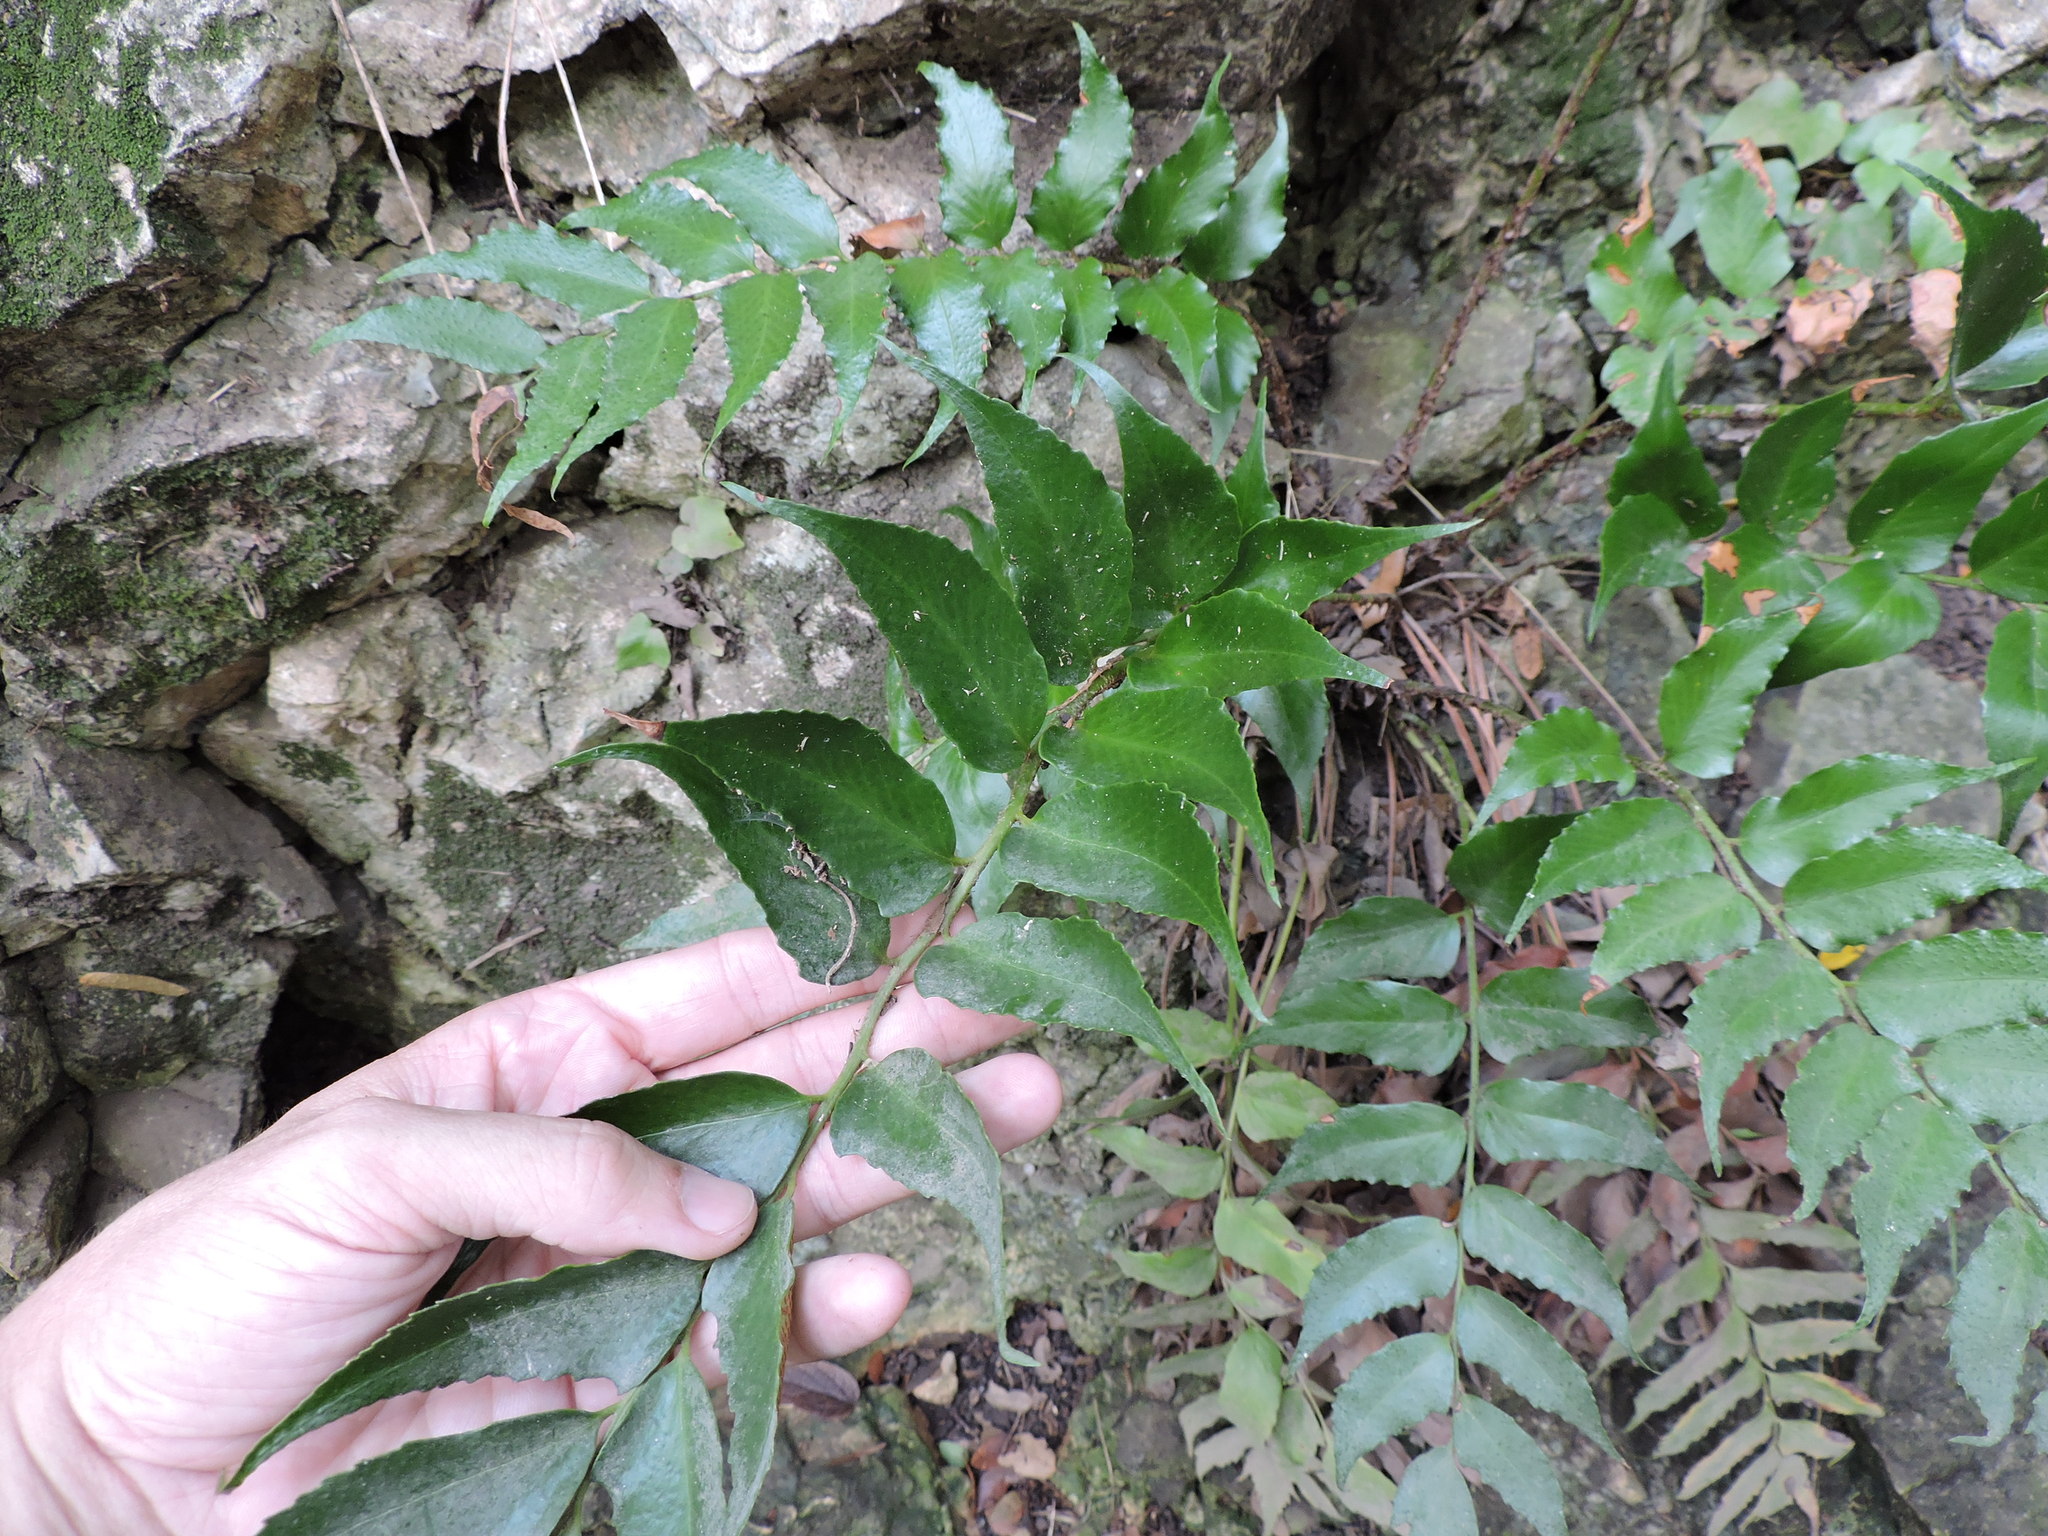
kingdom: Plantae
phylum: Tracheophyta
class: Polypodiopsida
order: Polypodiales
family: Dryopteridaceae
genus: Cyrtomium
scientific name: Cyrtomium falcatum
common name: House holly-fern
